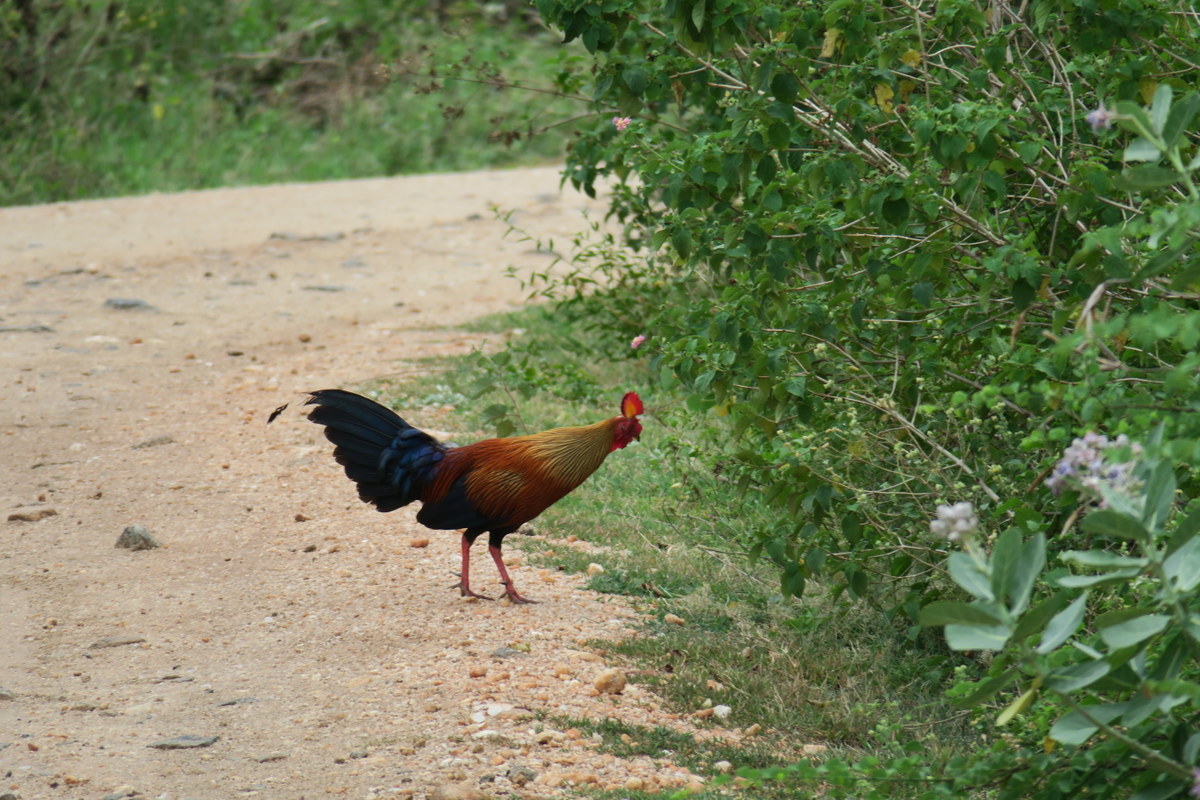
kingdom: Animalia
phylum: Chordata
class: Aves
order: Galliformes
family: Phasianidae
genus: Gallus
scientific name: Gallus lafayettii
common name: Sri lanka junglefowl
